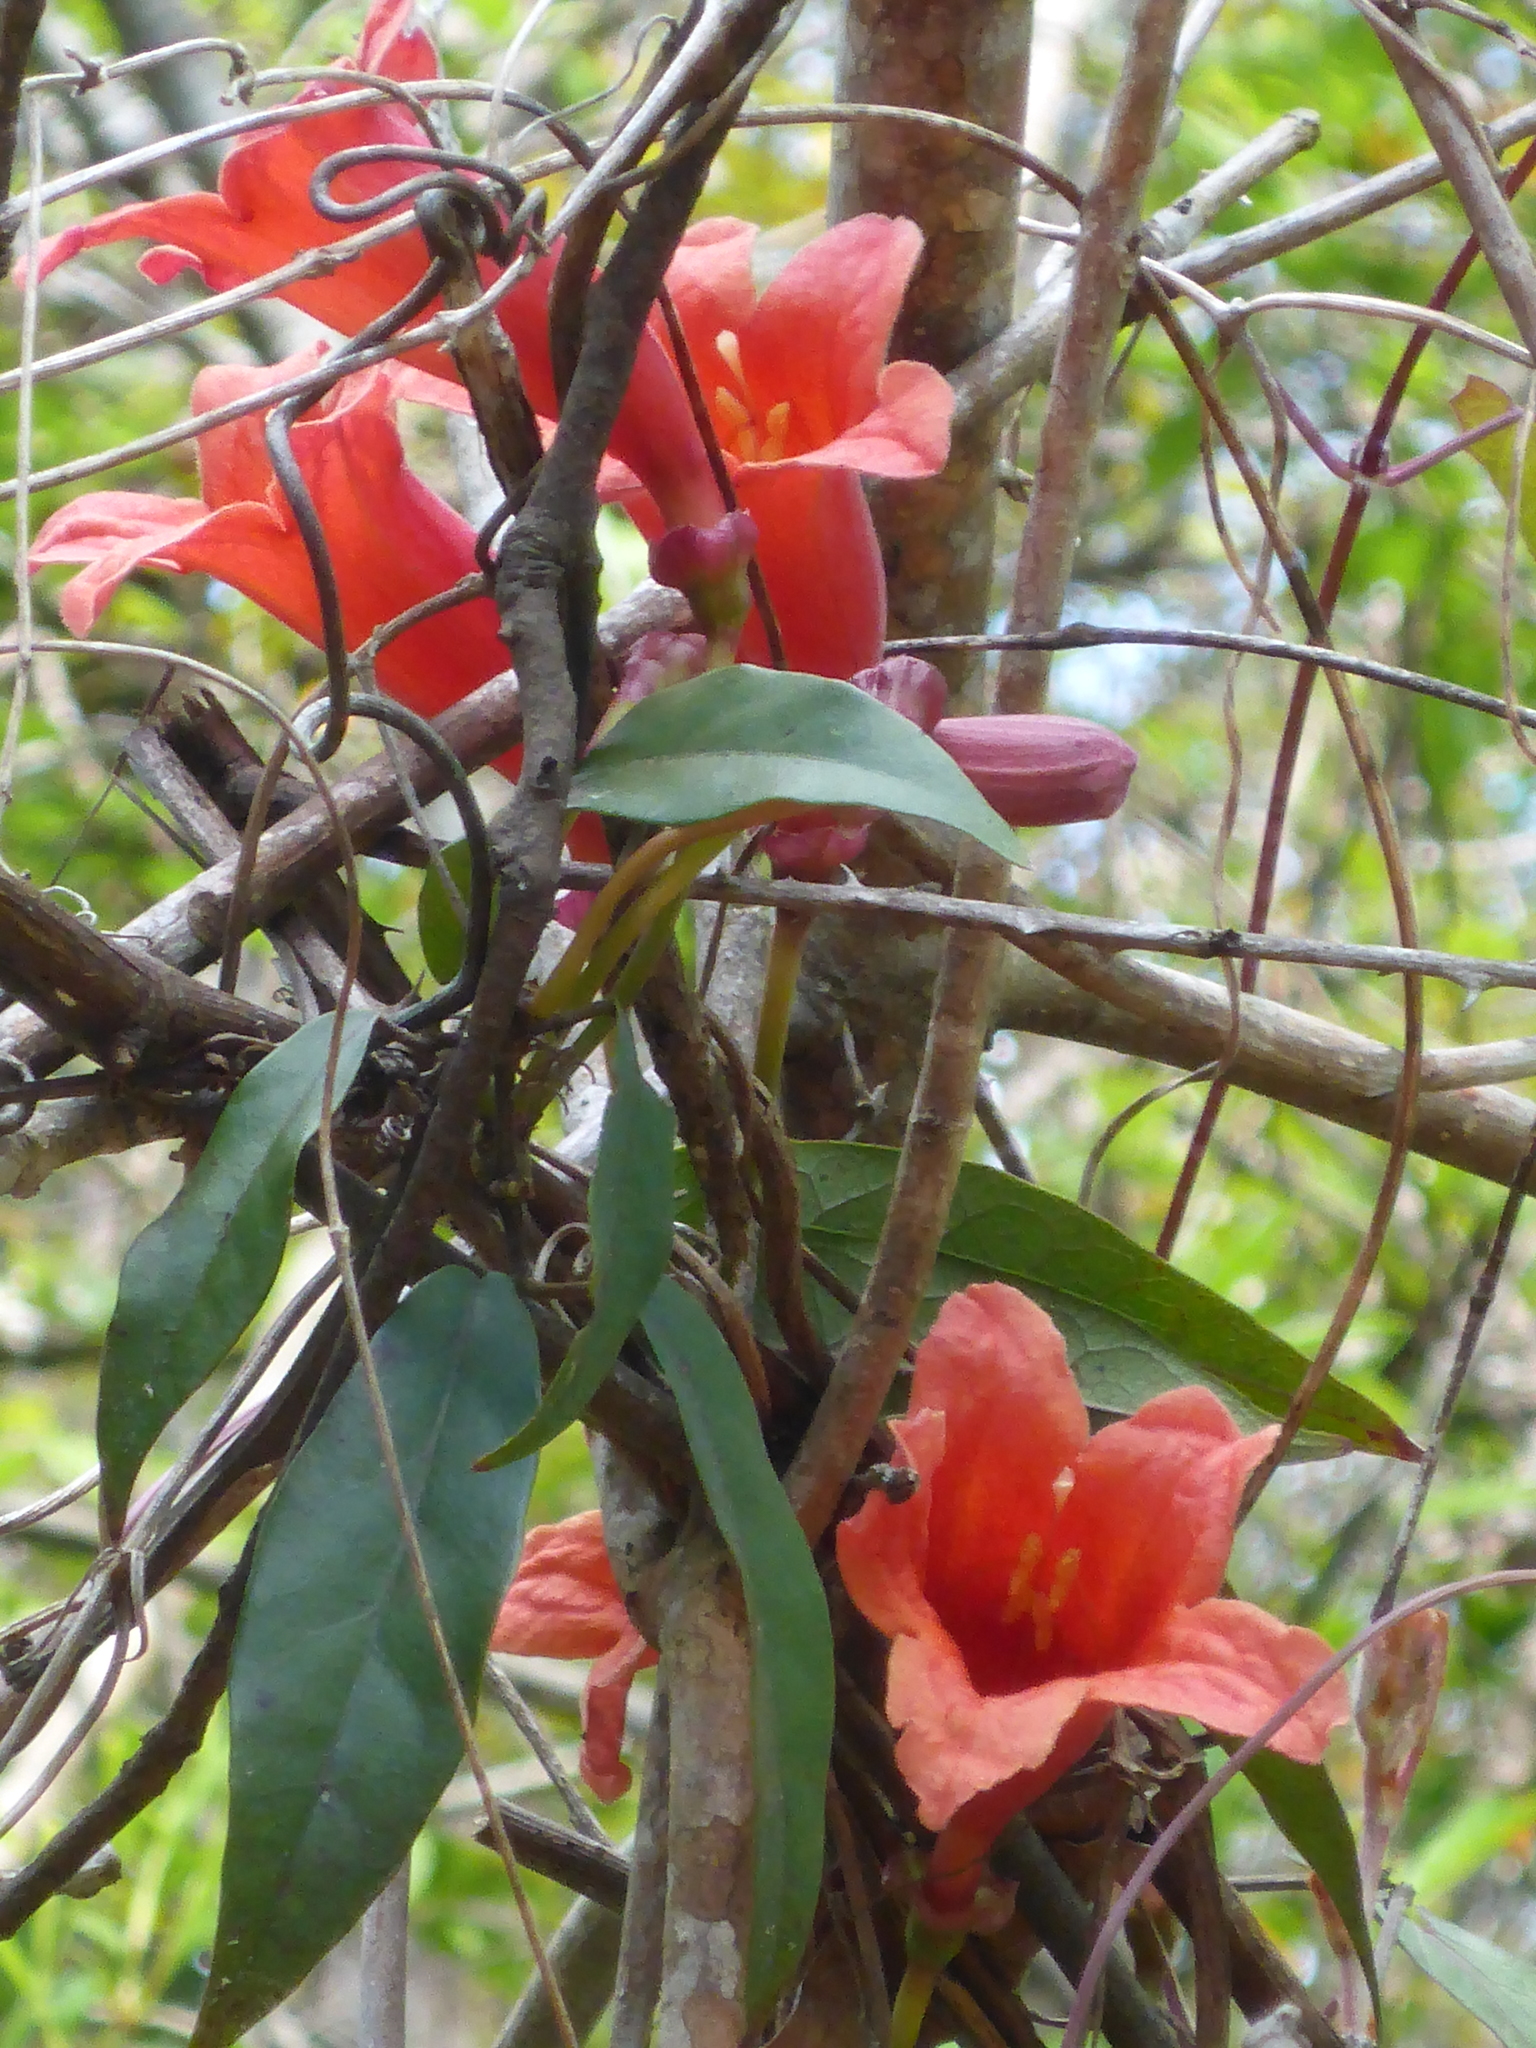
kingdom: Plantae
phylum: Tracheophyta
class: Magnoliopsida
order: Lamiales
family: Bignoniaceae
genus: Bignonia
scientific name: Bignonia capreolata
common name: Crossvine
